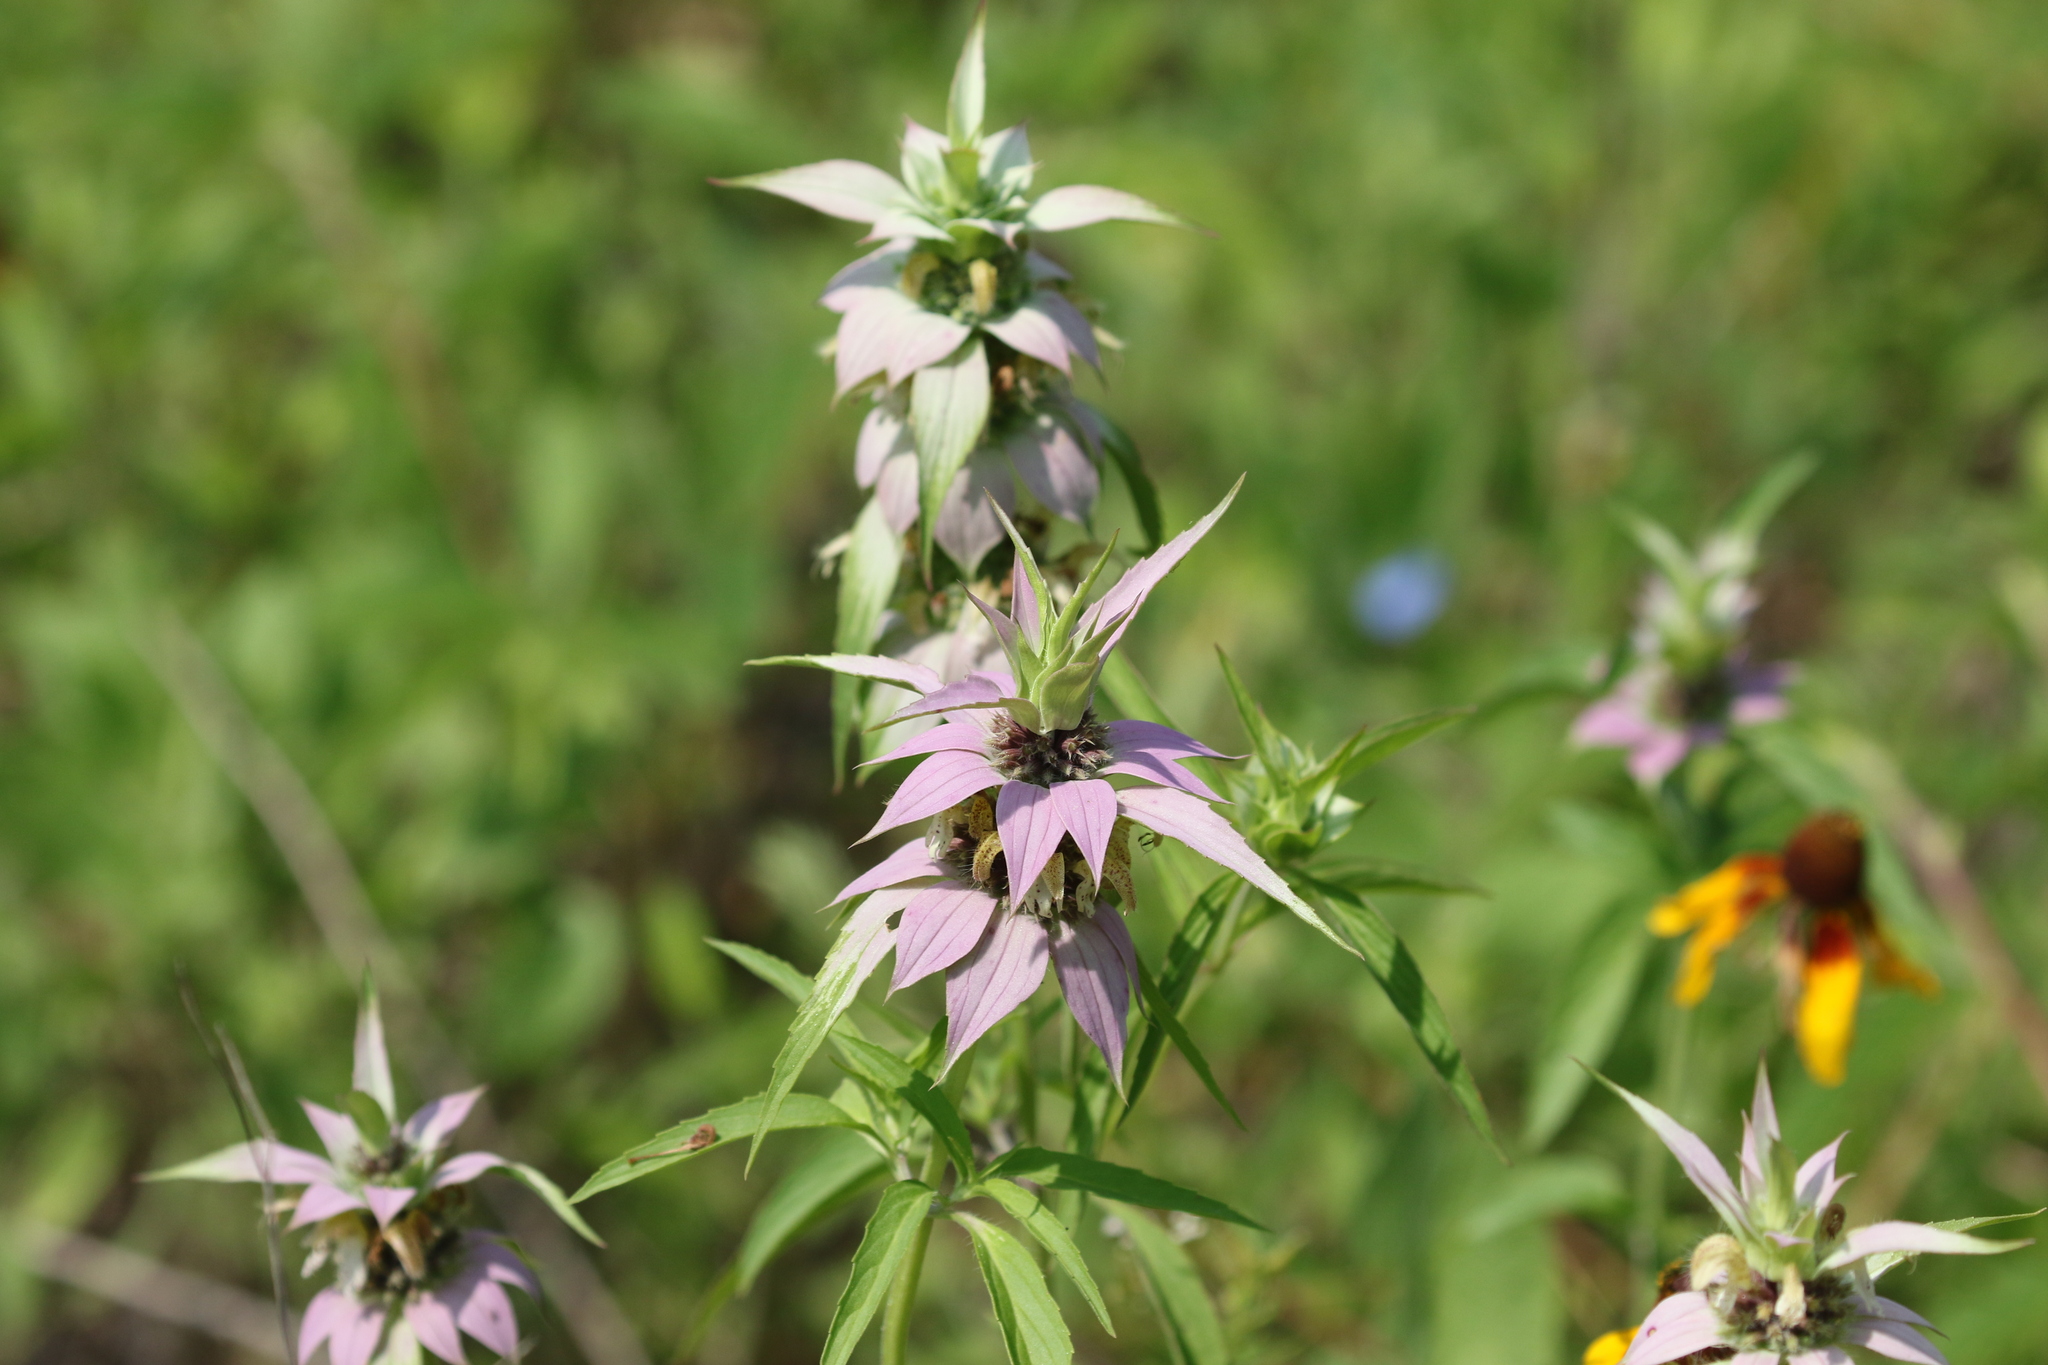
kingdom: Plantae
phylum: Tracheophyta
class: Magnoliopsida
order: Lamiales
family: Lamiaceae
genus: Monarda
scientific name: Monarda punctata
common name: Dotted monarda
